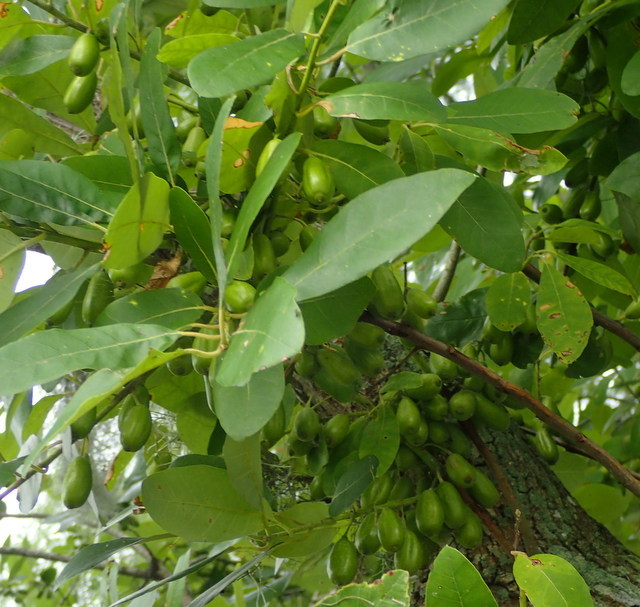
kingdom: Plantae
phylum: Tracheophyta
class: Magnoliopsida
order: Cornales
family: Nyssaceae
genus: Nyssa
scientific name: Nyssa ogeche
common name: Ogeechee tupelo
